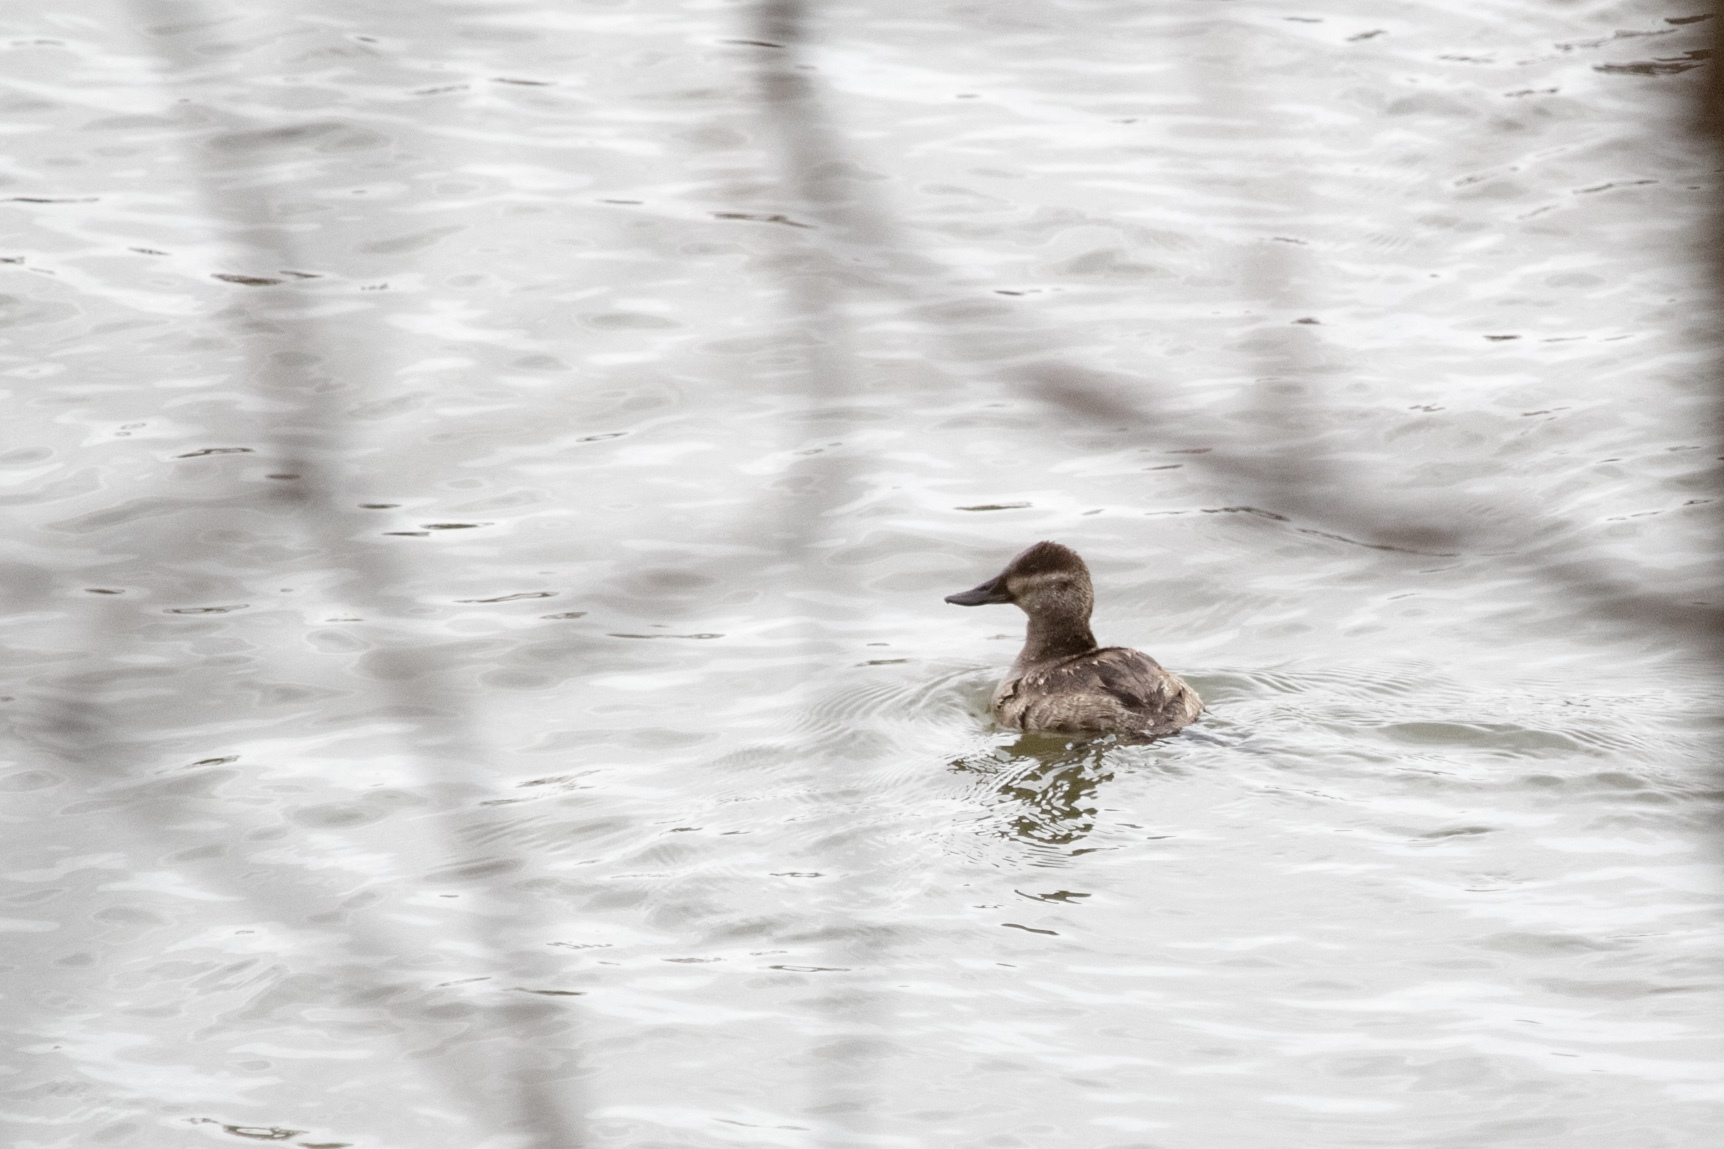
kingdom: Animalia
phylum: Chordata
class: Aves
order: Anseriformes
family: Anatidae
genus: Oxyura
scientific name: Oxyura jamaicensis
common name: Ruddy duck
